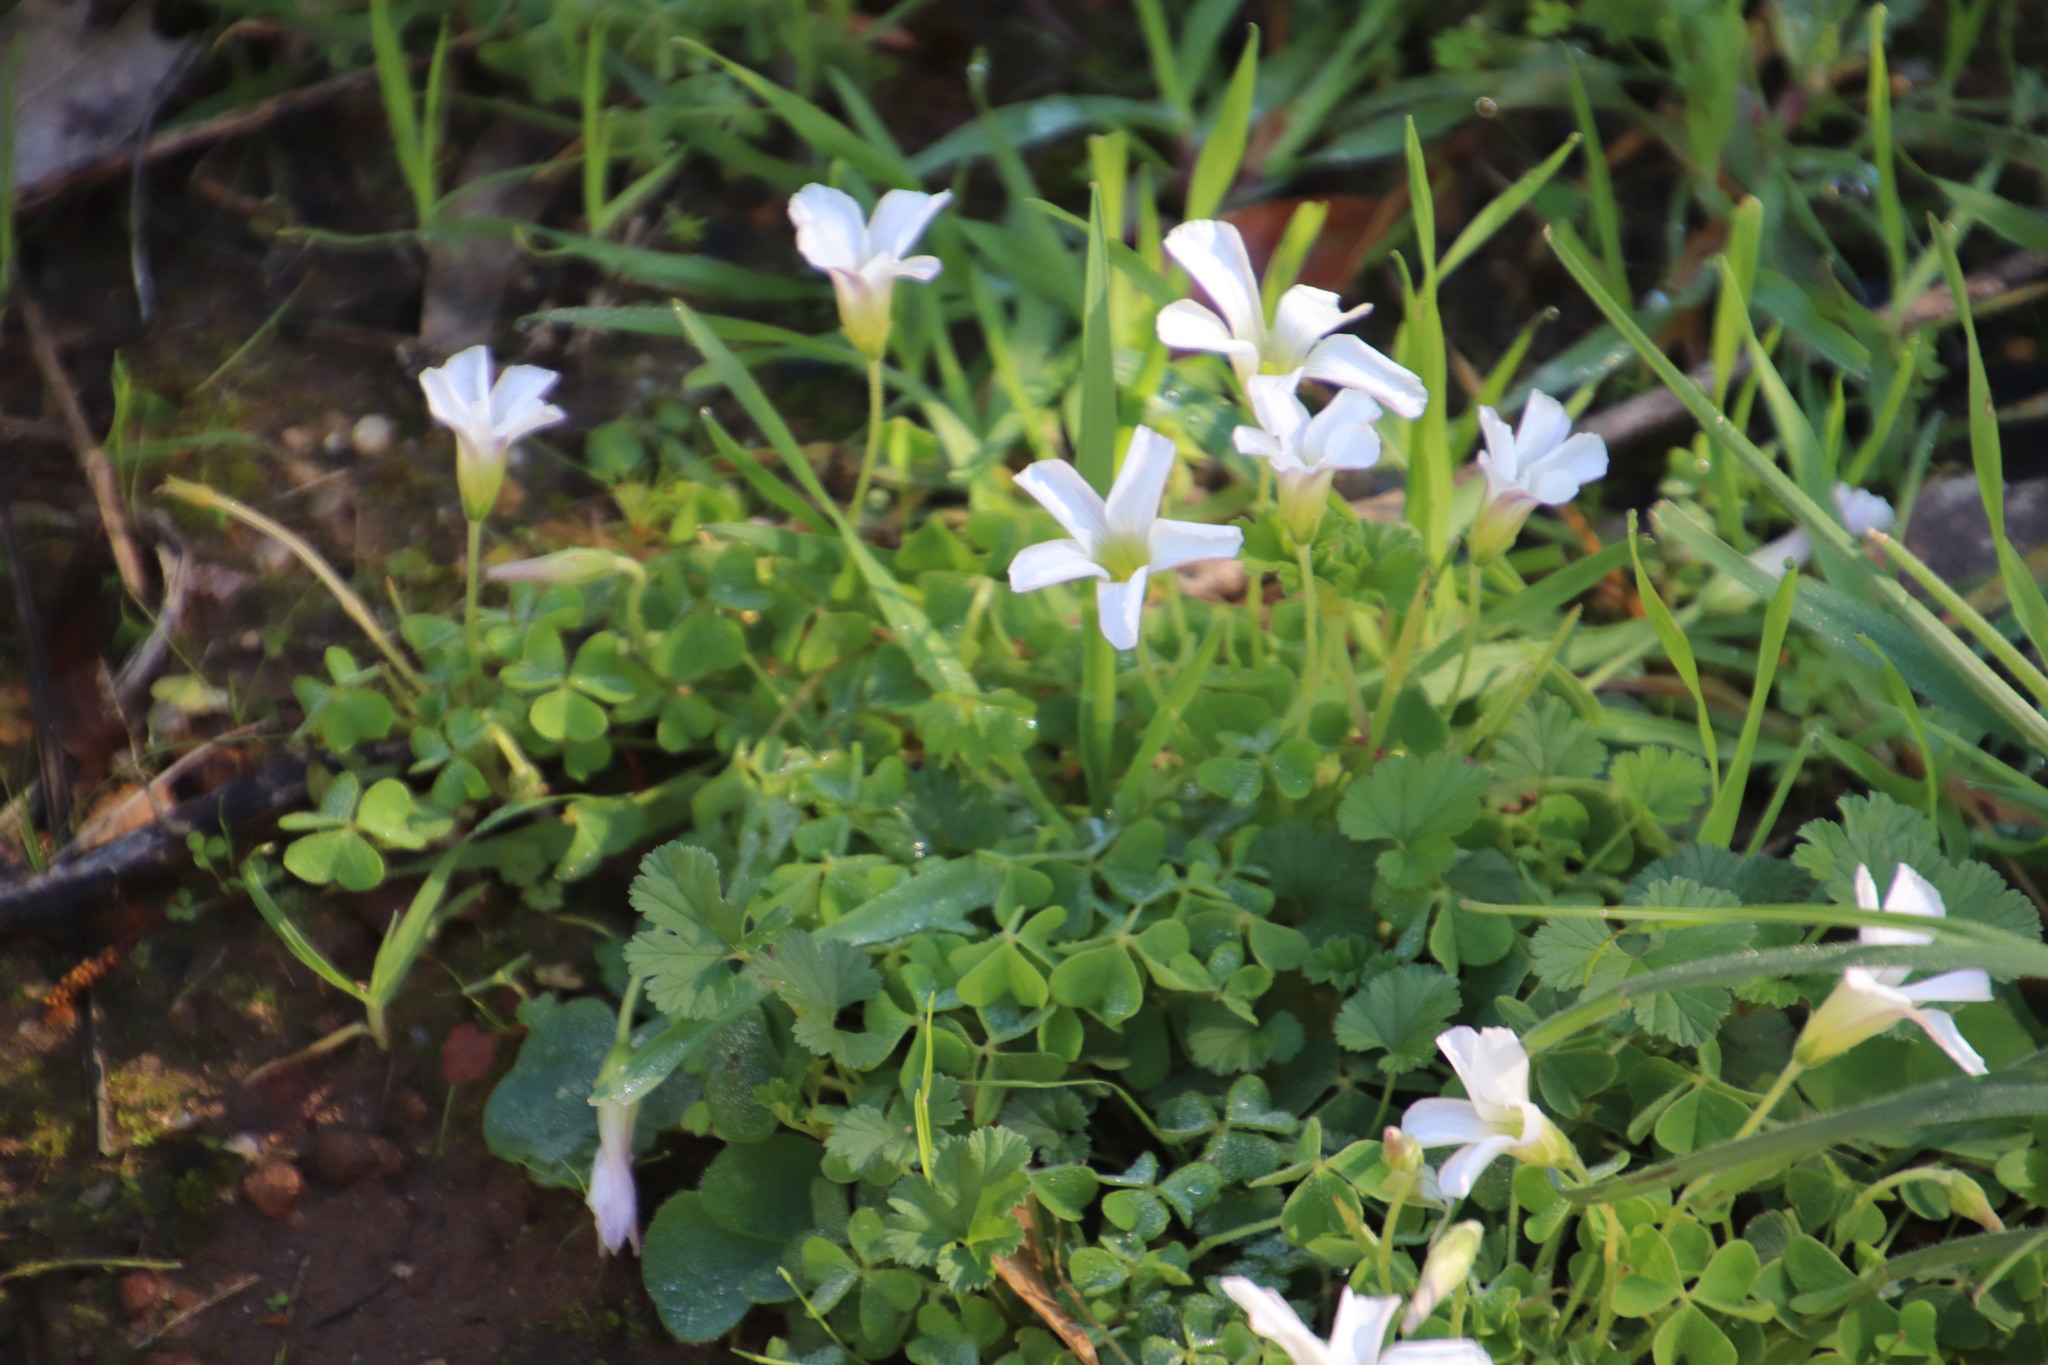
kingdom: Plantae
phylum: Tracheophyta
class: Magnoliopsida
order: Oxalidales
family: Oxalidaceae
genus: Oxalis
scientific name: Oxalis lanata
